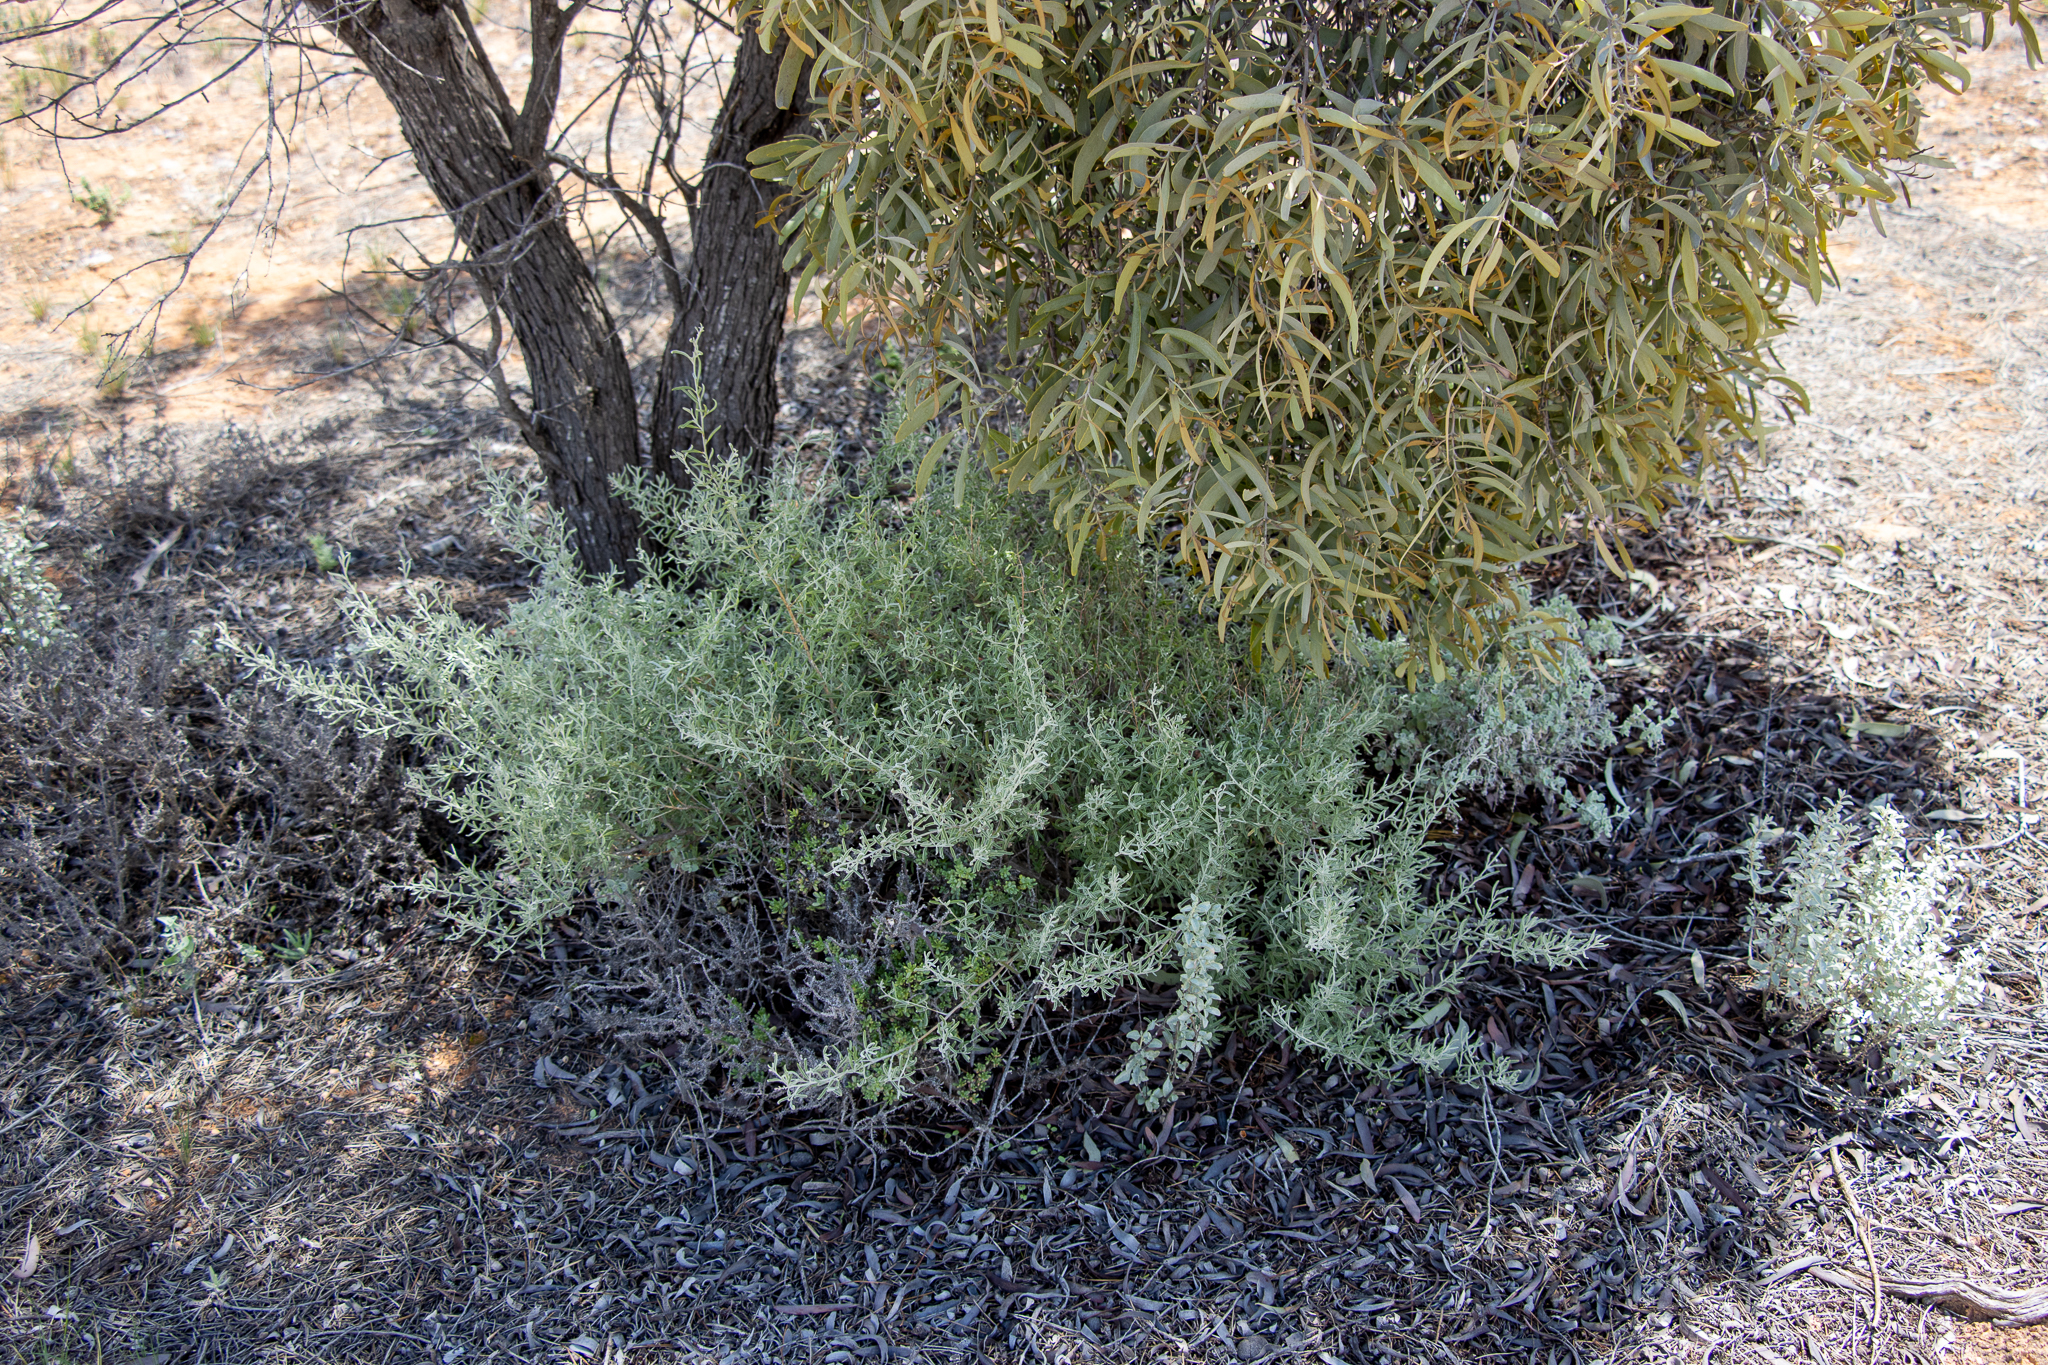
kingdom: Plantae
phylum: Tracheophyta
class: Magnoliopsida
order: Caryophyllales
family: Amaranthaceae
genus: Chenopodium
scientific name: Chenopodium wilsonii
